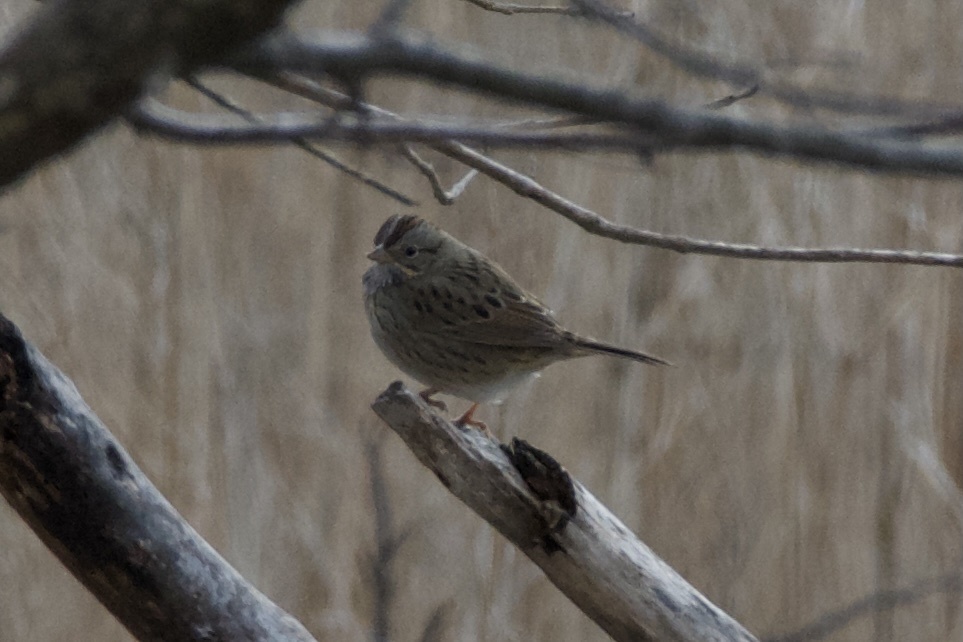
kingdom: Animalia
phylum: Chordata
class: Aves
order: Passeriformes
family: Passerellidae
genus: Melospiza
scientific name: Melospiza lincolnii
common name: Lincoln's sparrow
